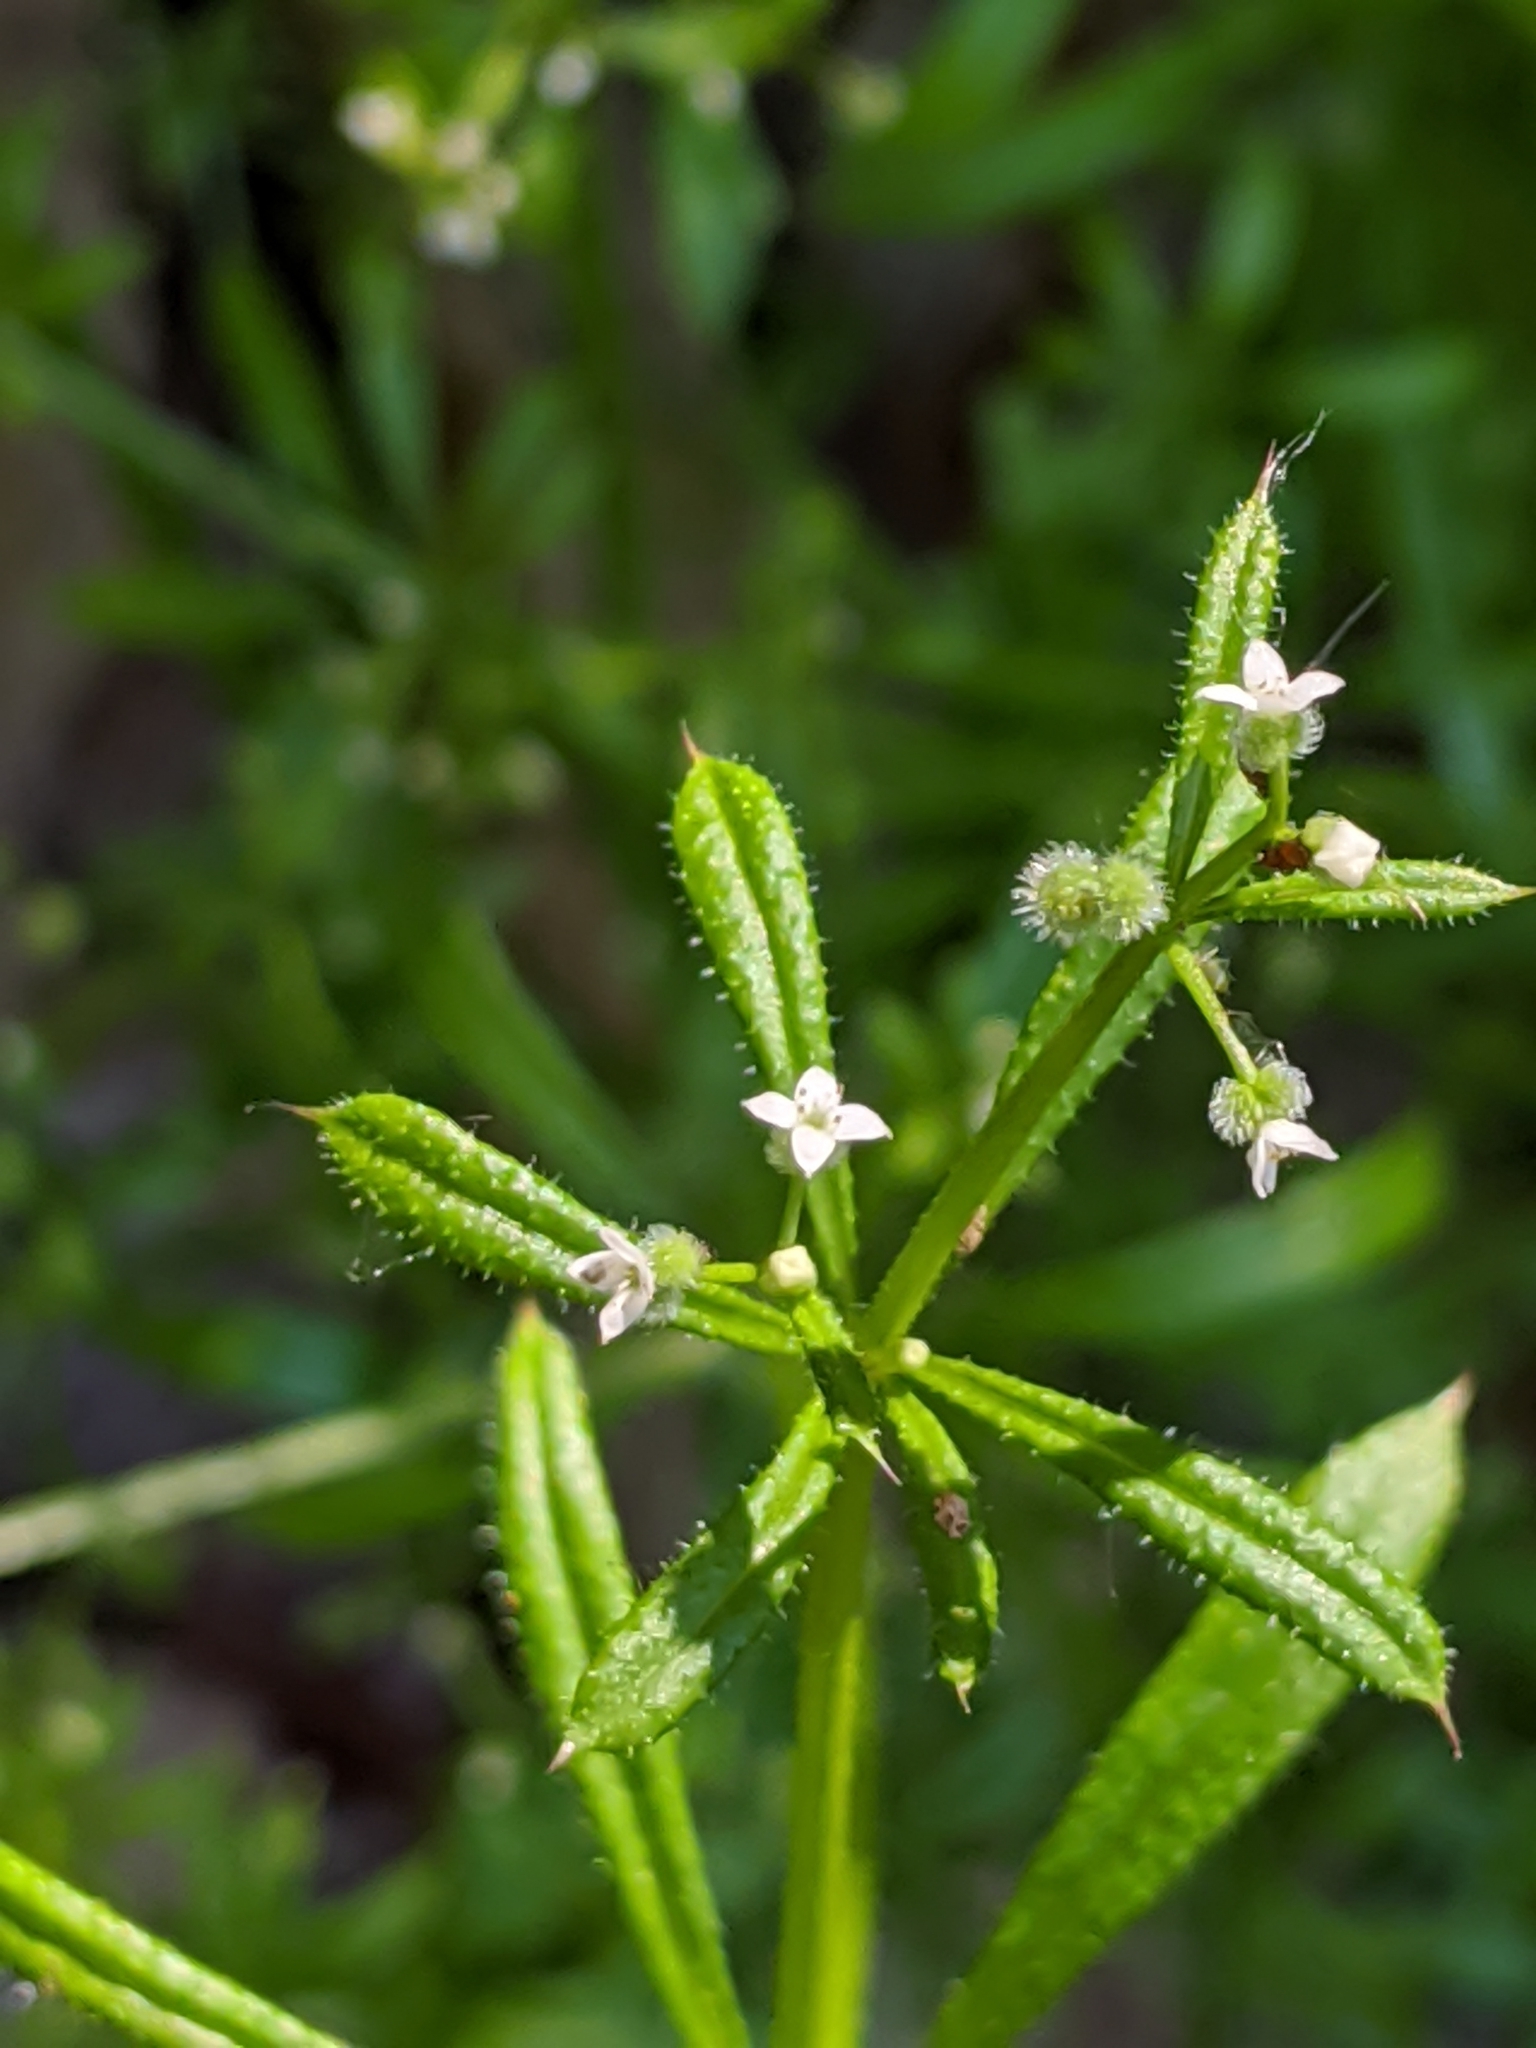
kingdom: Plantae
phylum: Tracheophyta
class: Magnoliopsida
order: Gentianales
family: Rubiaceae
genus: Galium
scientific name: Galium aparine
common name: Cleavers
